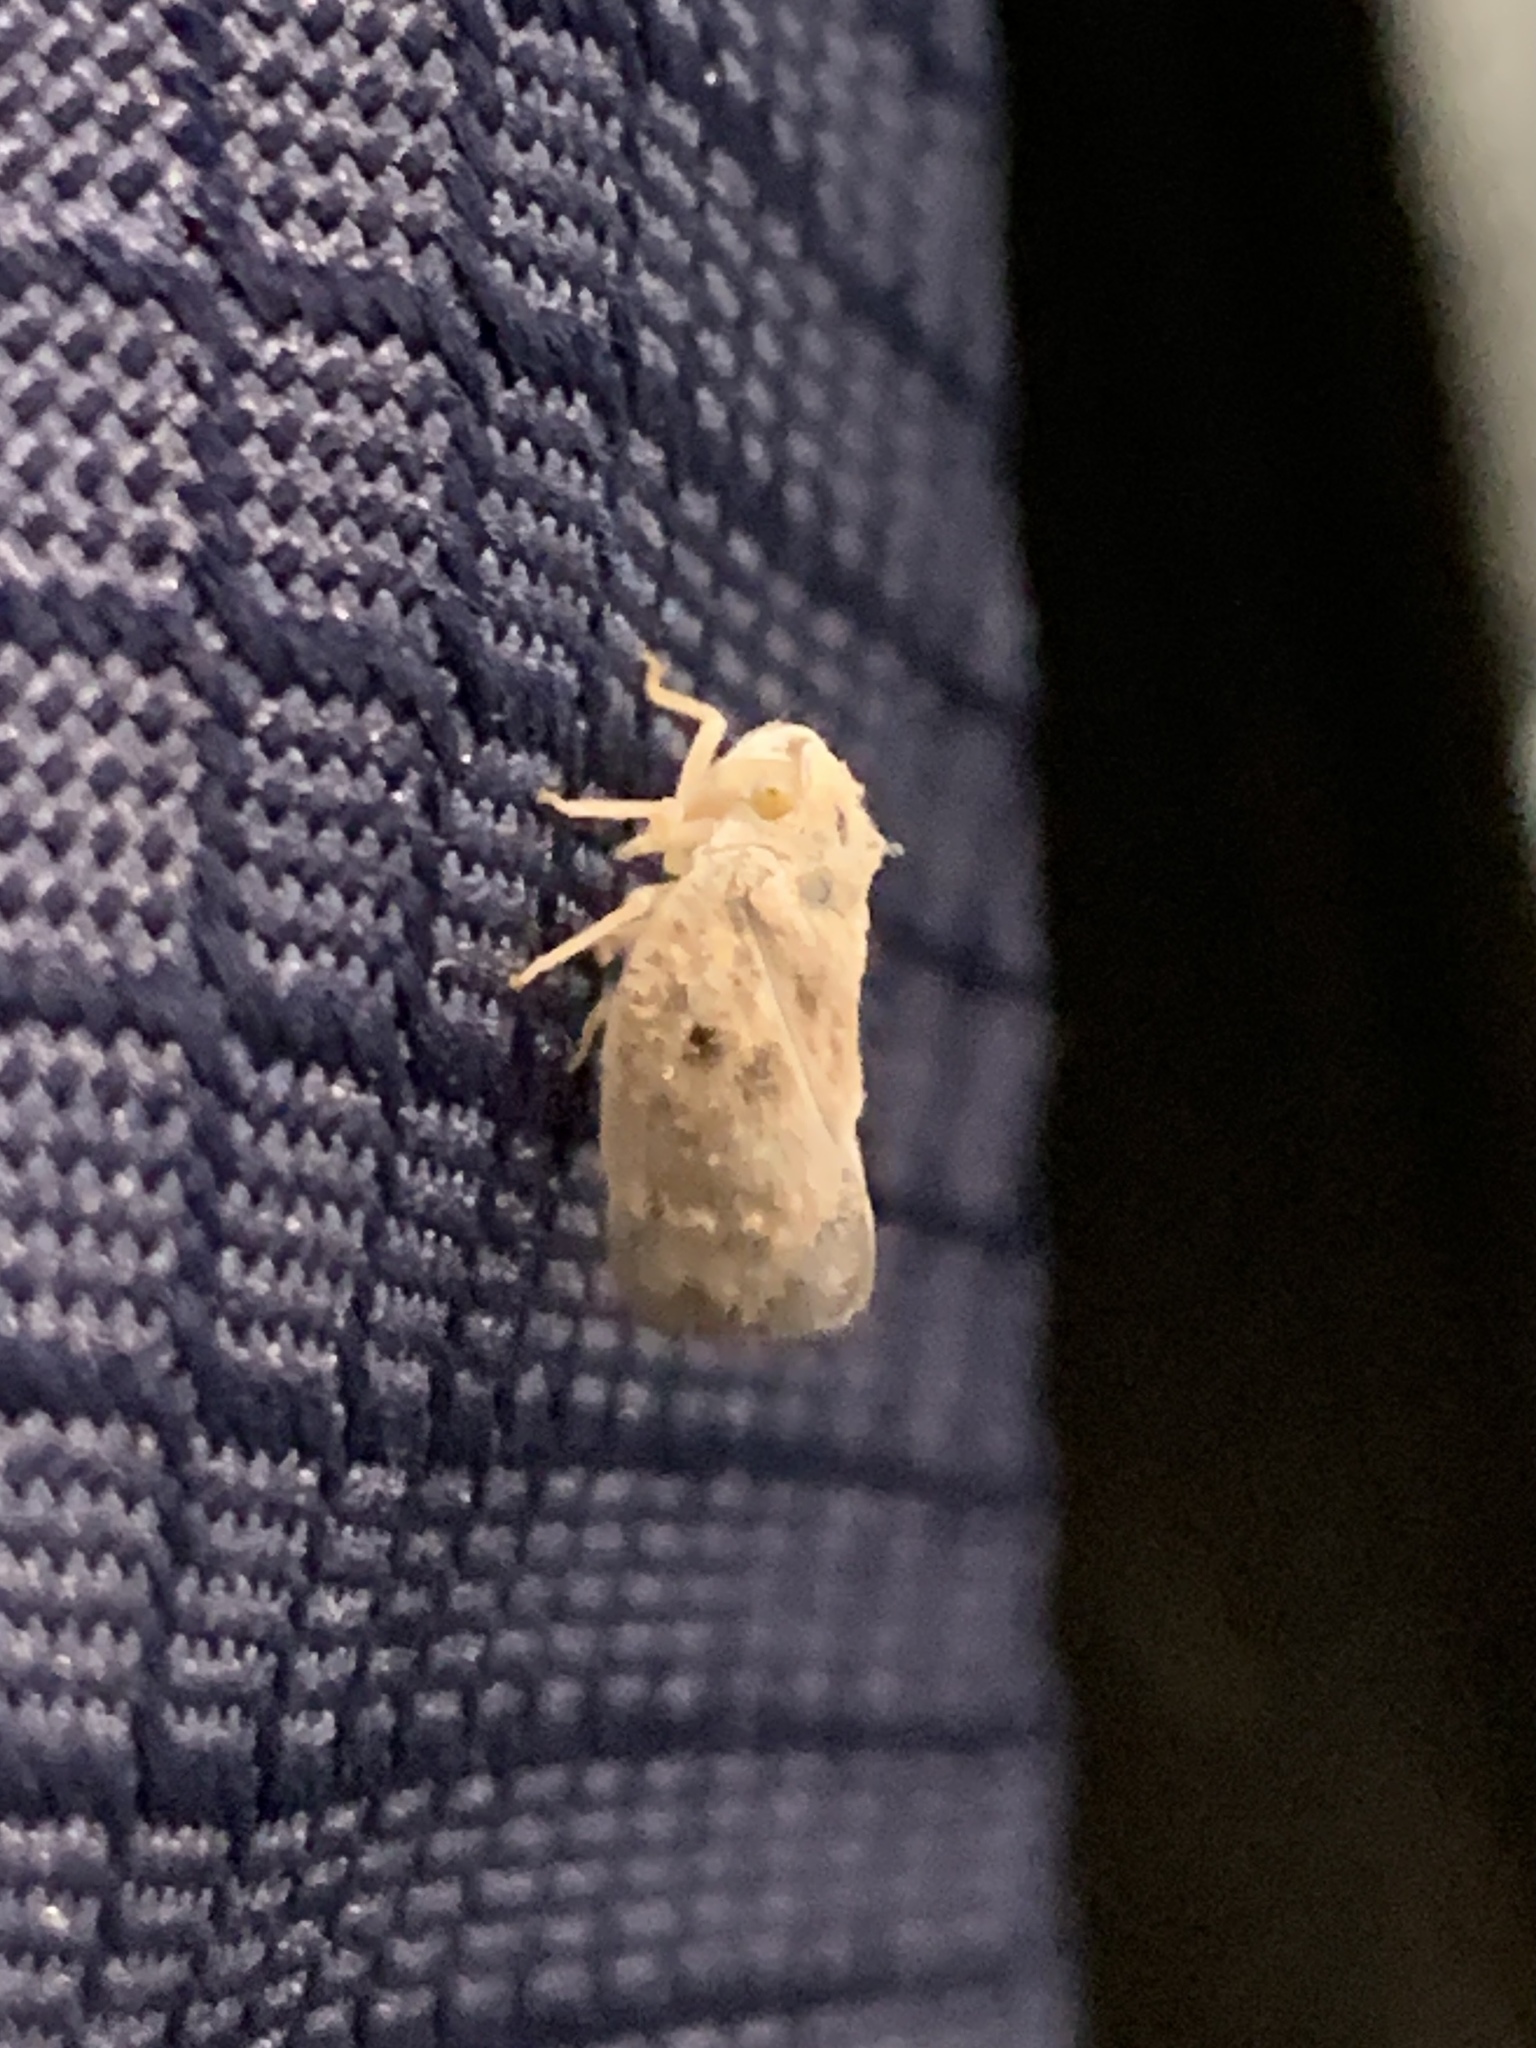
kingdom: Animalia
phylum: Arthropoda
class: Insecta
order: Hemiptera
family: Flatidae
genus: Metcalfa
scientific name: Metcalfa pruinosa
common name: Citrus flatid planthopper
